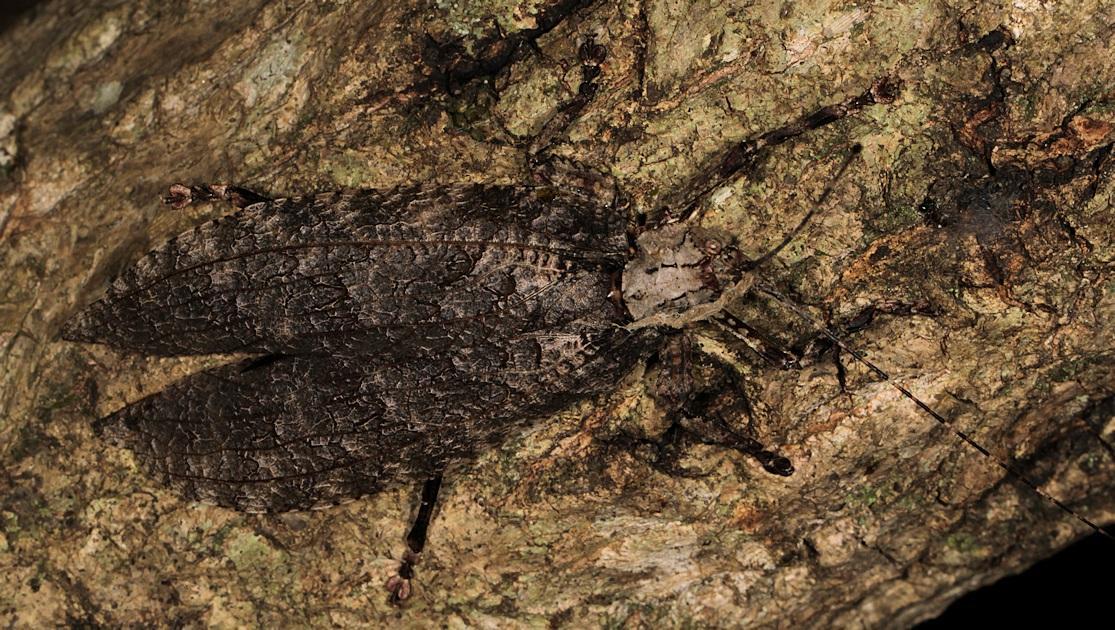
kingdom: Animalia
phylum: Arthropoda
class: Insecta
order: Orthoptera
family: Tettigoniidae
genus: Cymatomera
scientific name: Cymatomera denticollis
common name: Common bark katydid
